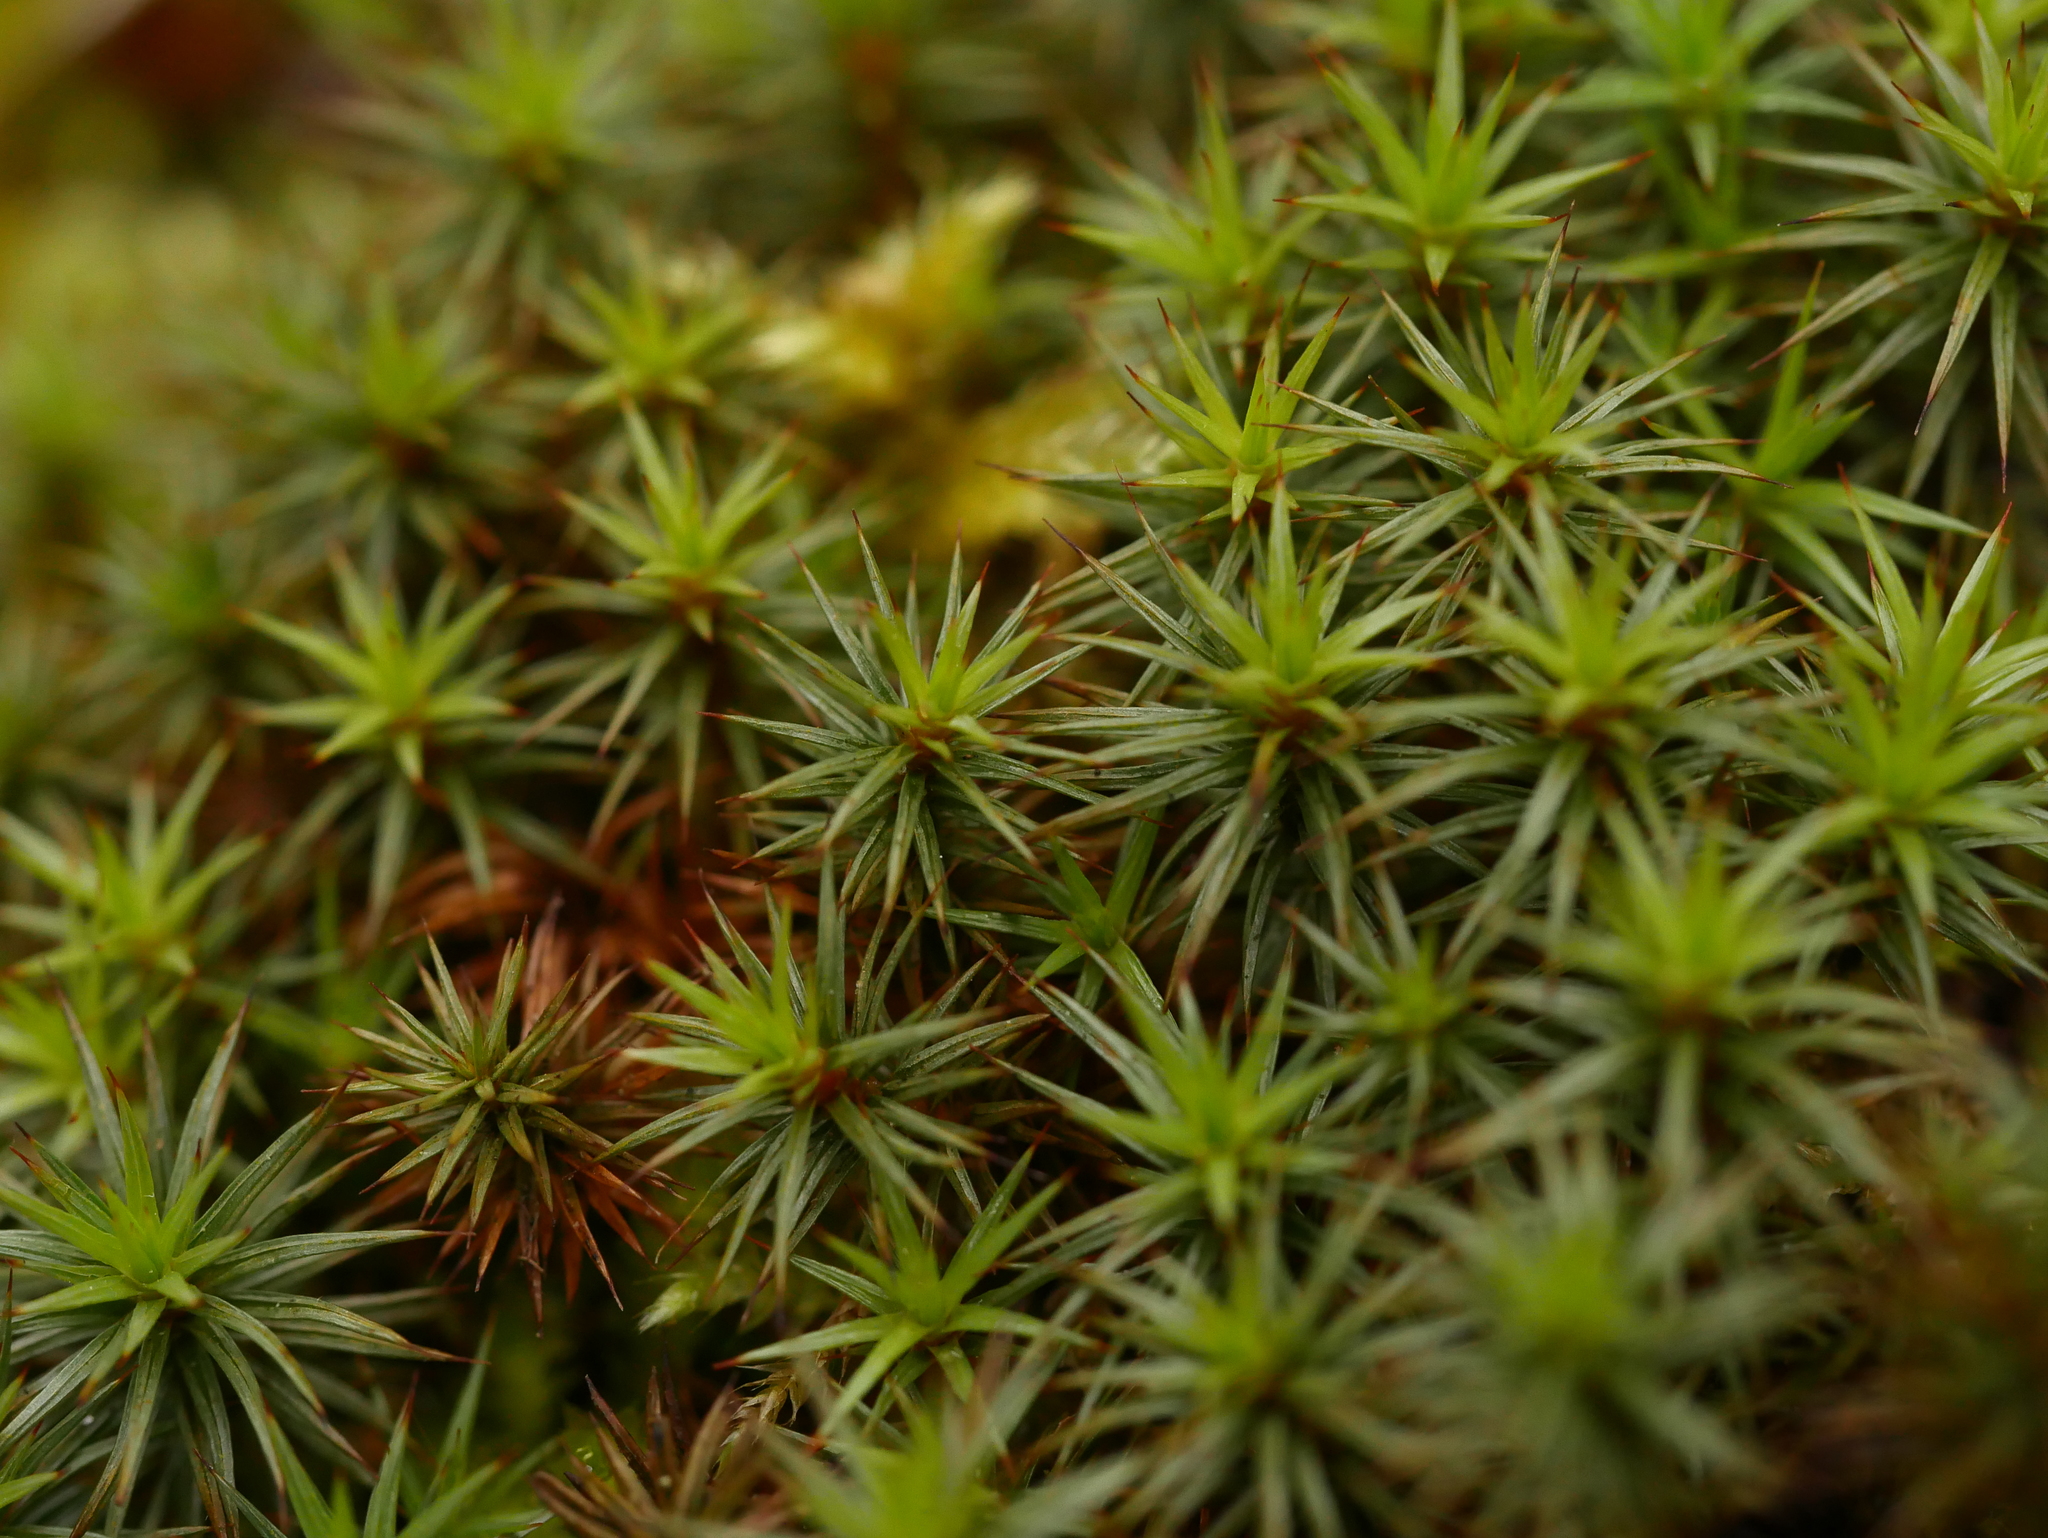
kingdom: Plantae
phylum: Bryophyta
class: Polytrichopsida
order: Polytrichales
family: Polytrichaceae
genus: Polytrichum
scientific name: Polytrichum juniperinum
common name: Juniper haircap moss
